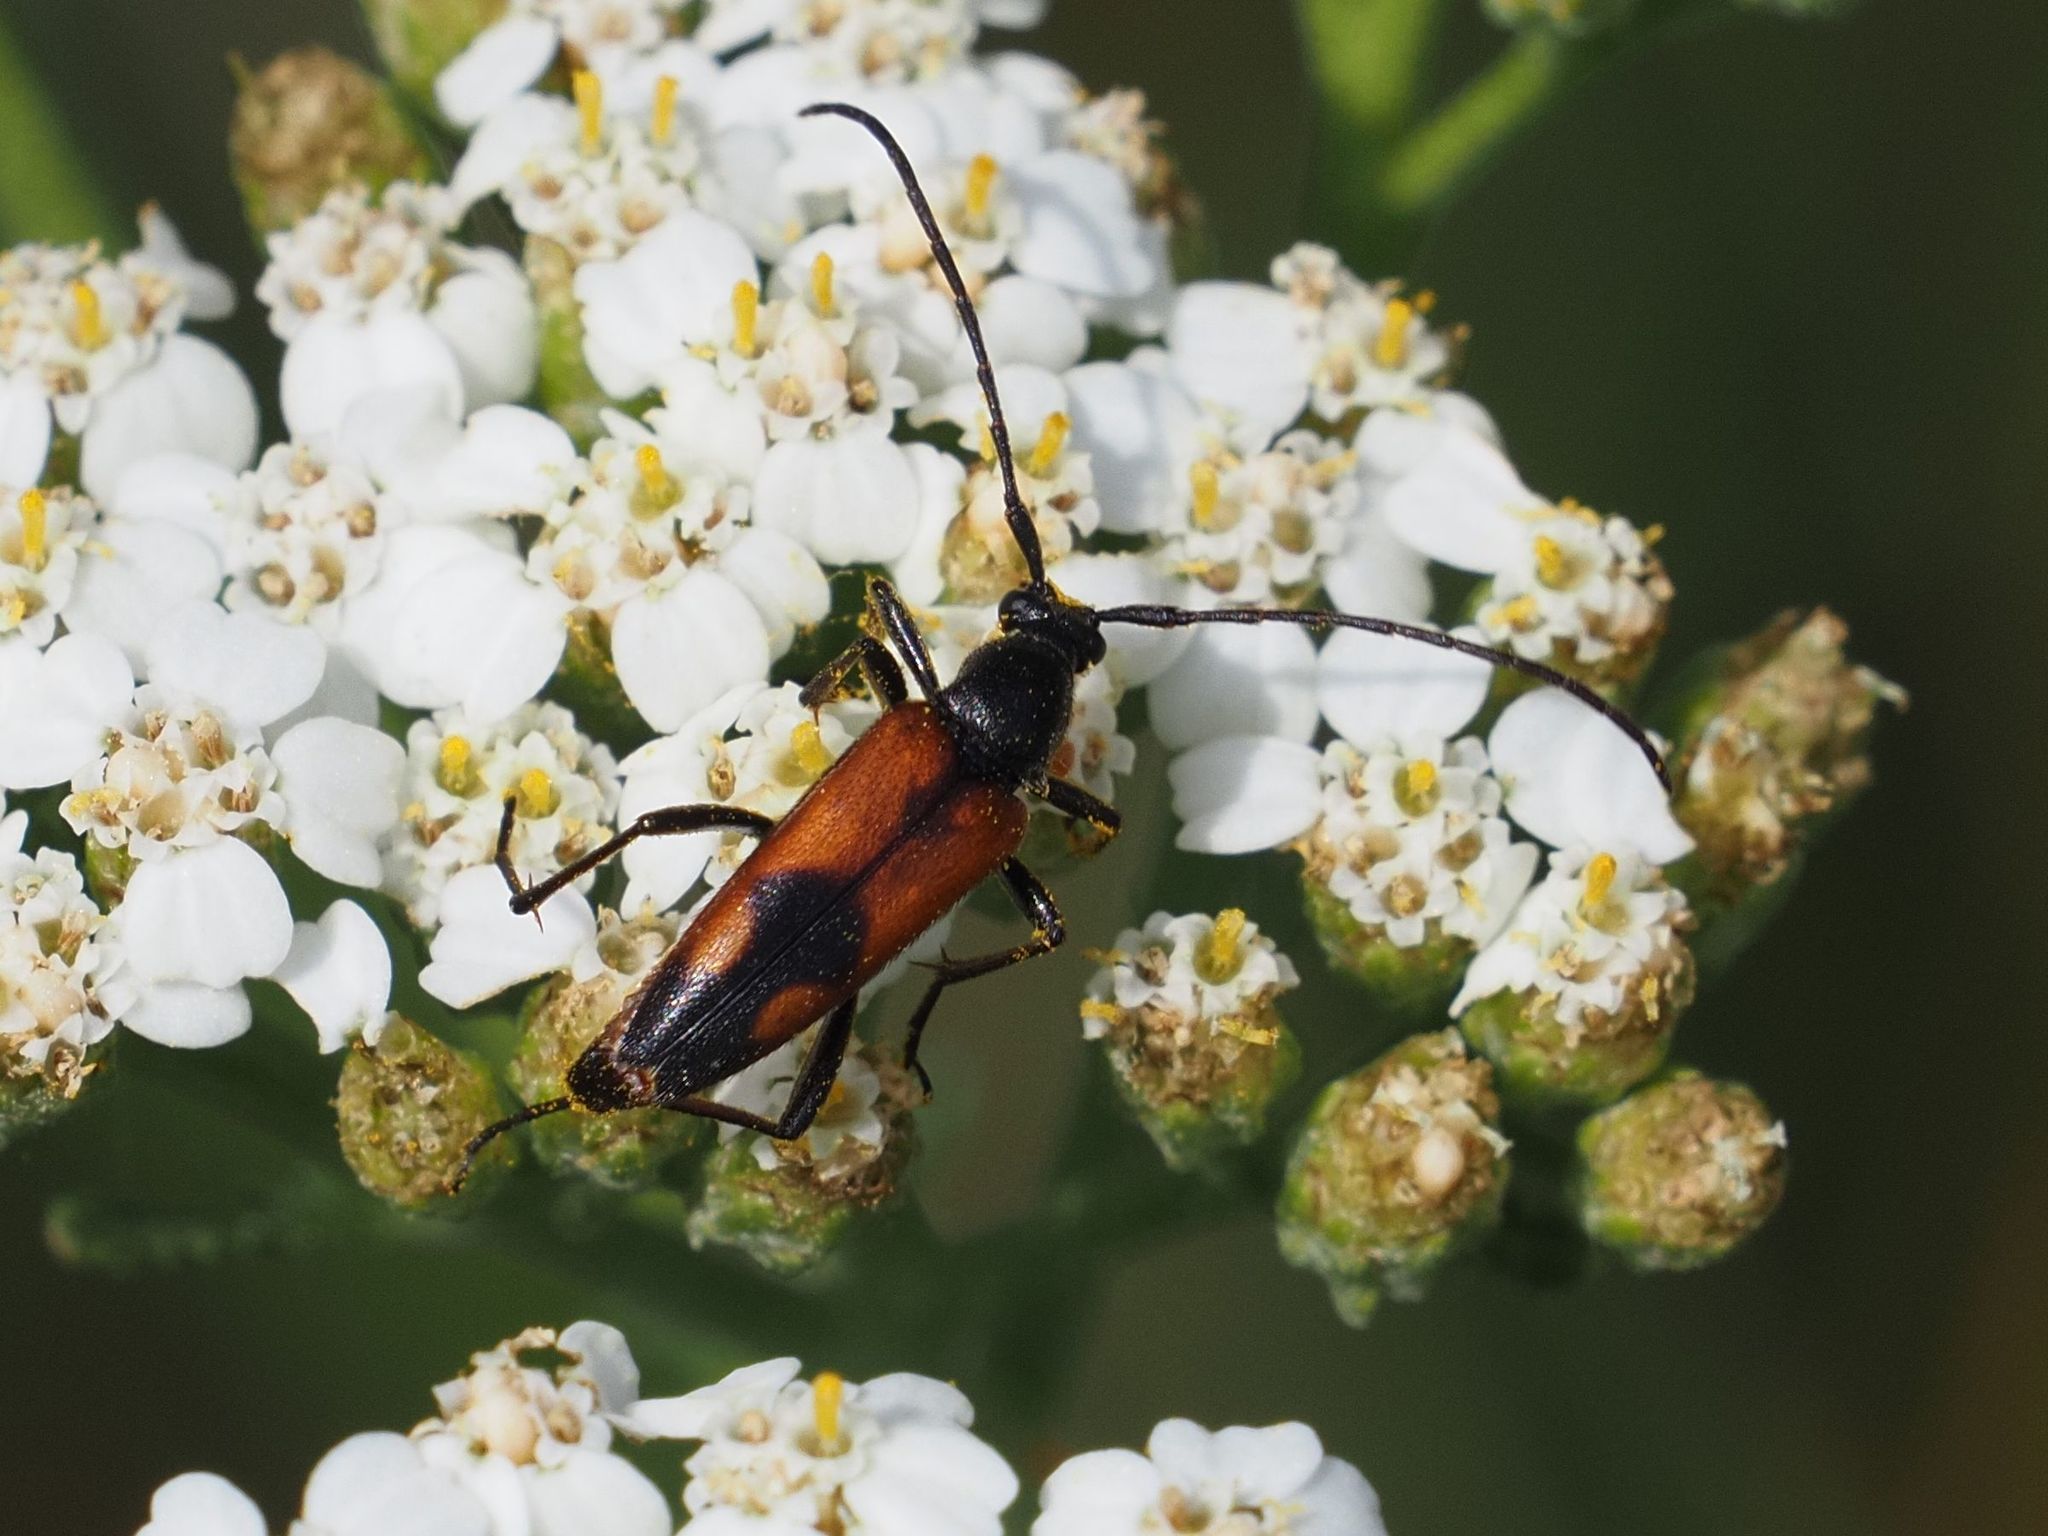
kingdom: Animalia
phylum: Arthropoda
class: Insecta
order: Coleoptera
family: Cerambycidae
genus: Stenurella
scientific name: Stenurella bifasciata
